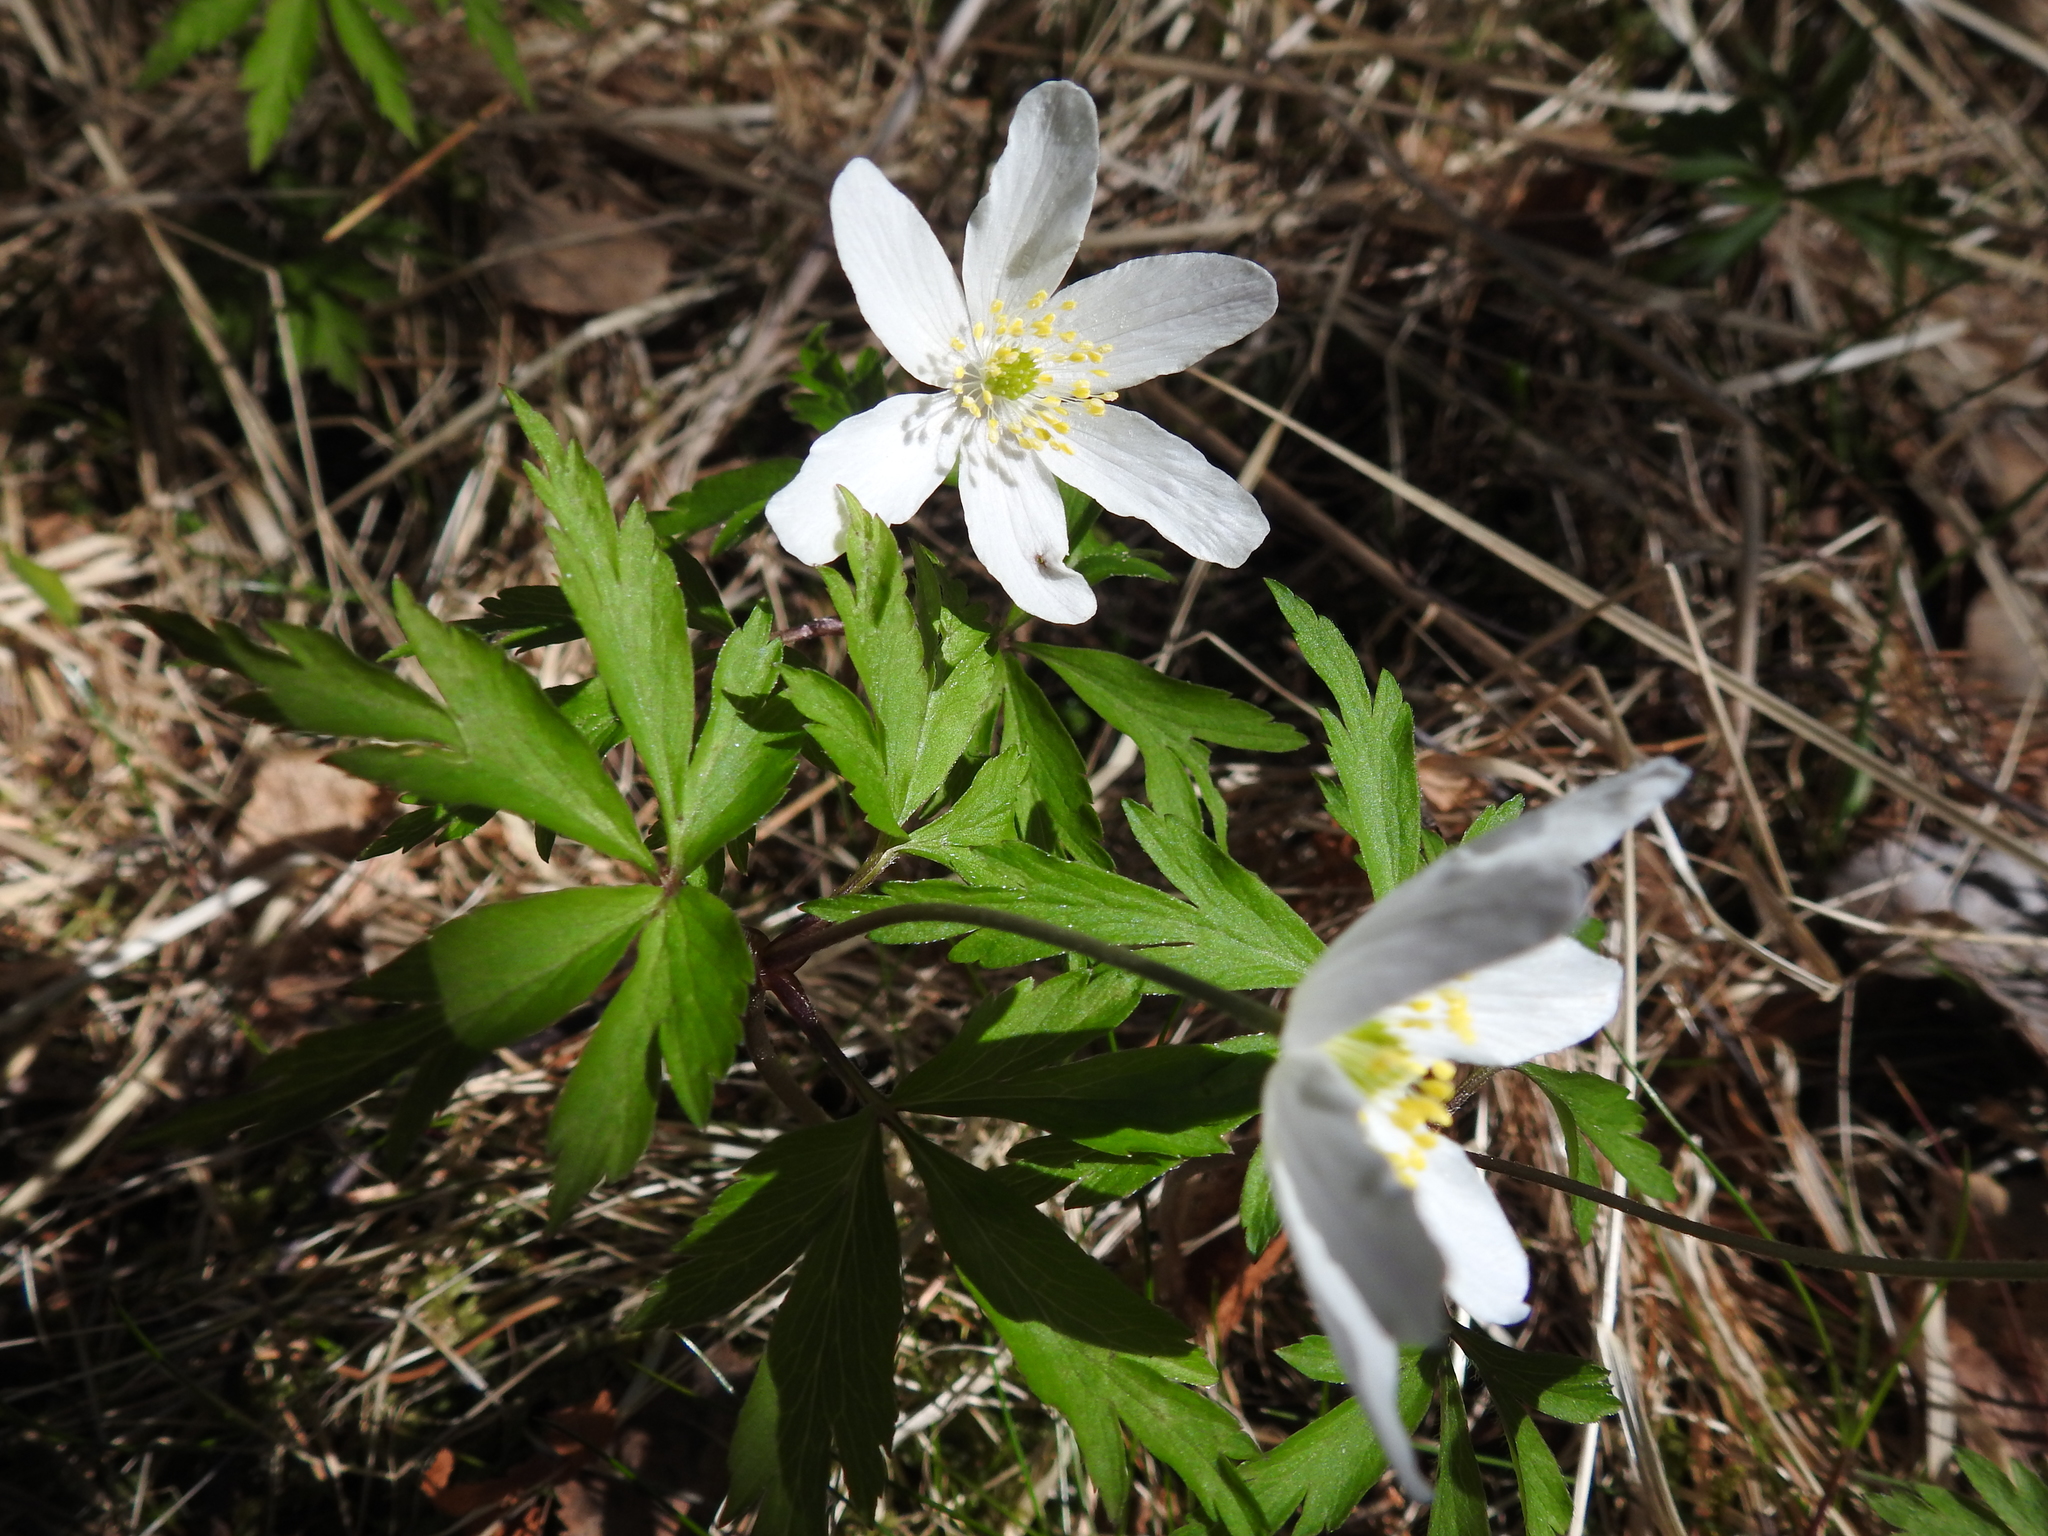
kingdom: Plantae
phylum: Tracheophyta
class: Magnoliopsida
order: Ranunculales
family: Ranunculaceae
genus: Anemone
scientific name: Anemone nemorosa
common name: Wood anemone
